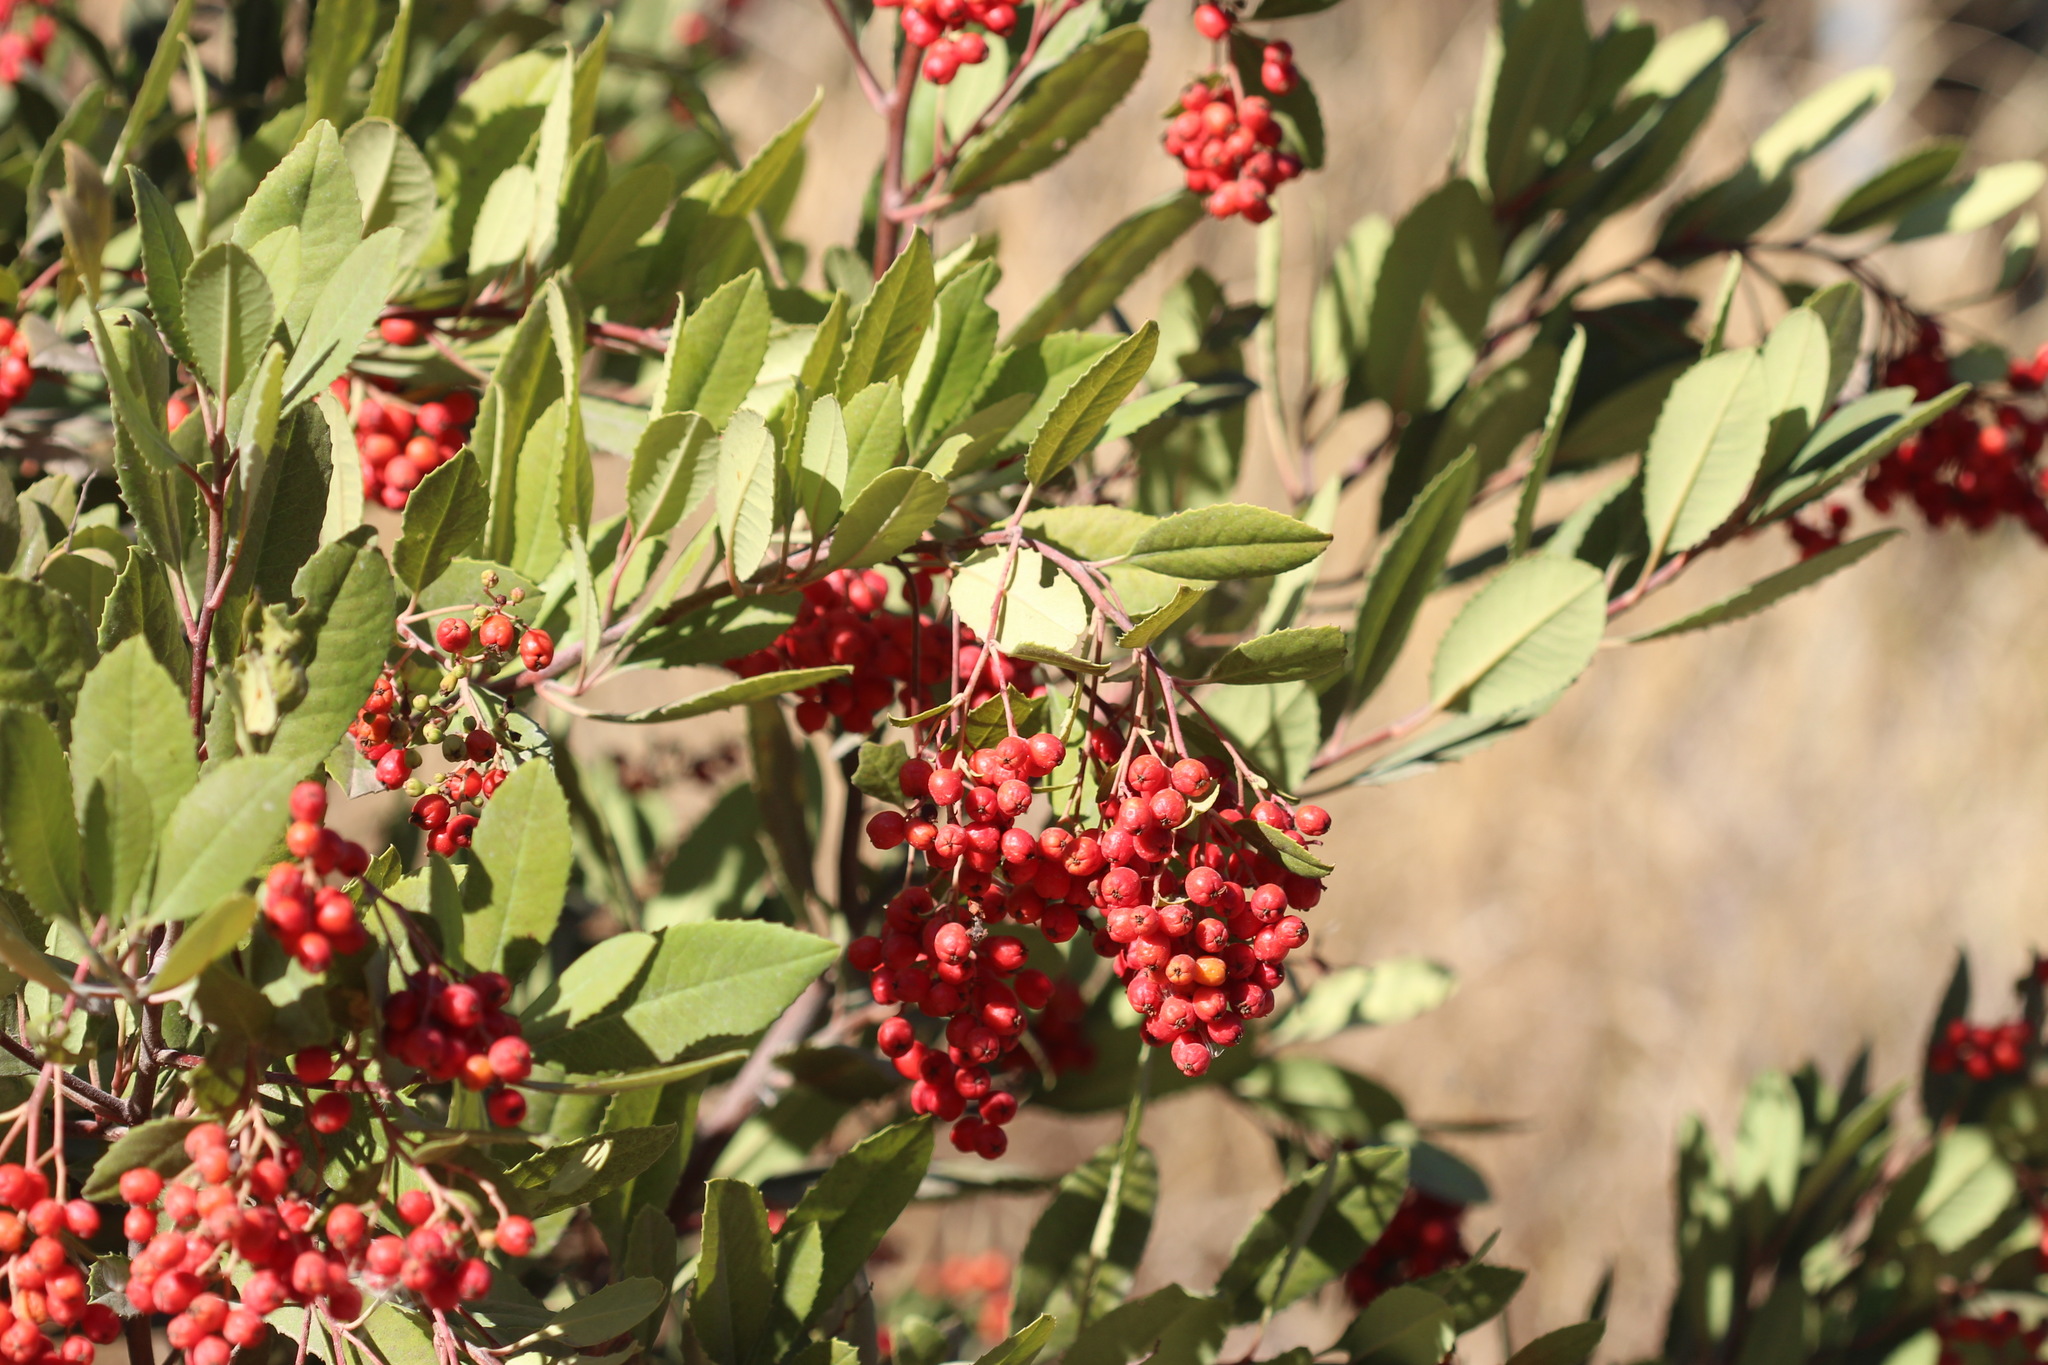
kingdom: Plantae
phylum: Tracheophyta
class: Magnoliopsida
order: Rosales
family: Rosaceae
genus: Heteromeles
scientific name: Heteromeles arbutifolia
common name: California-holly
